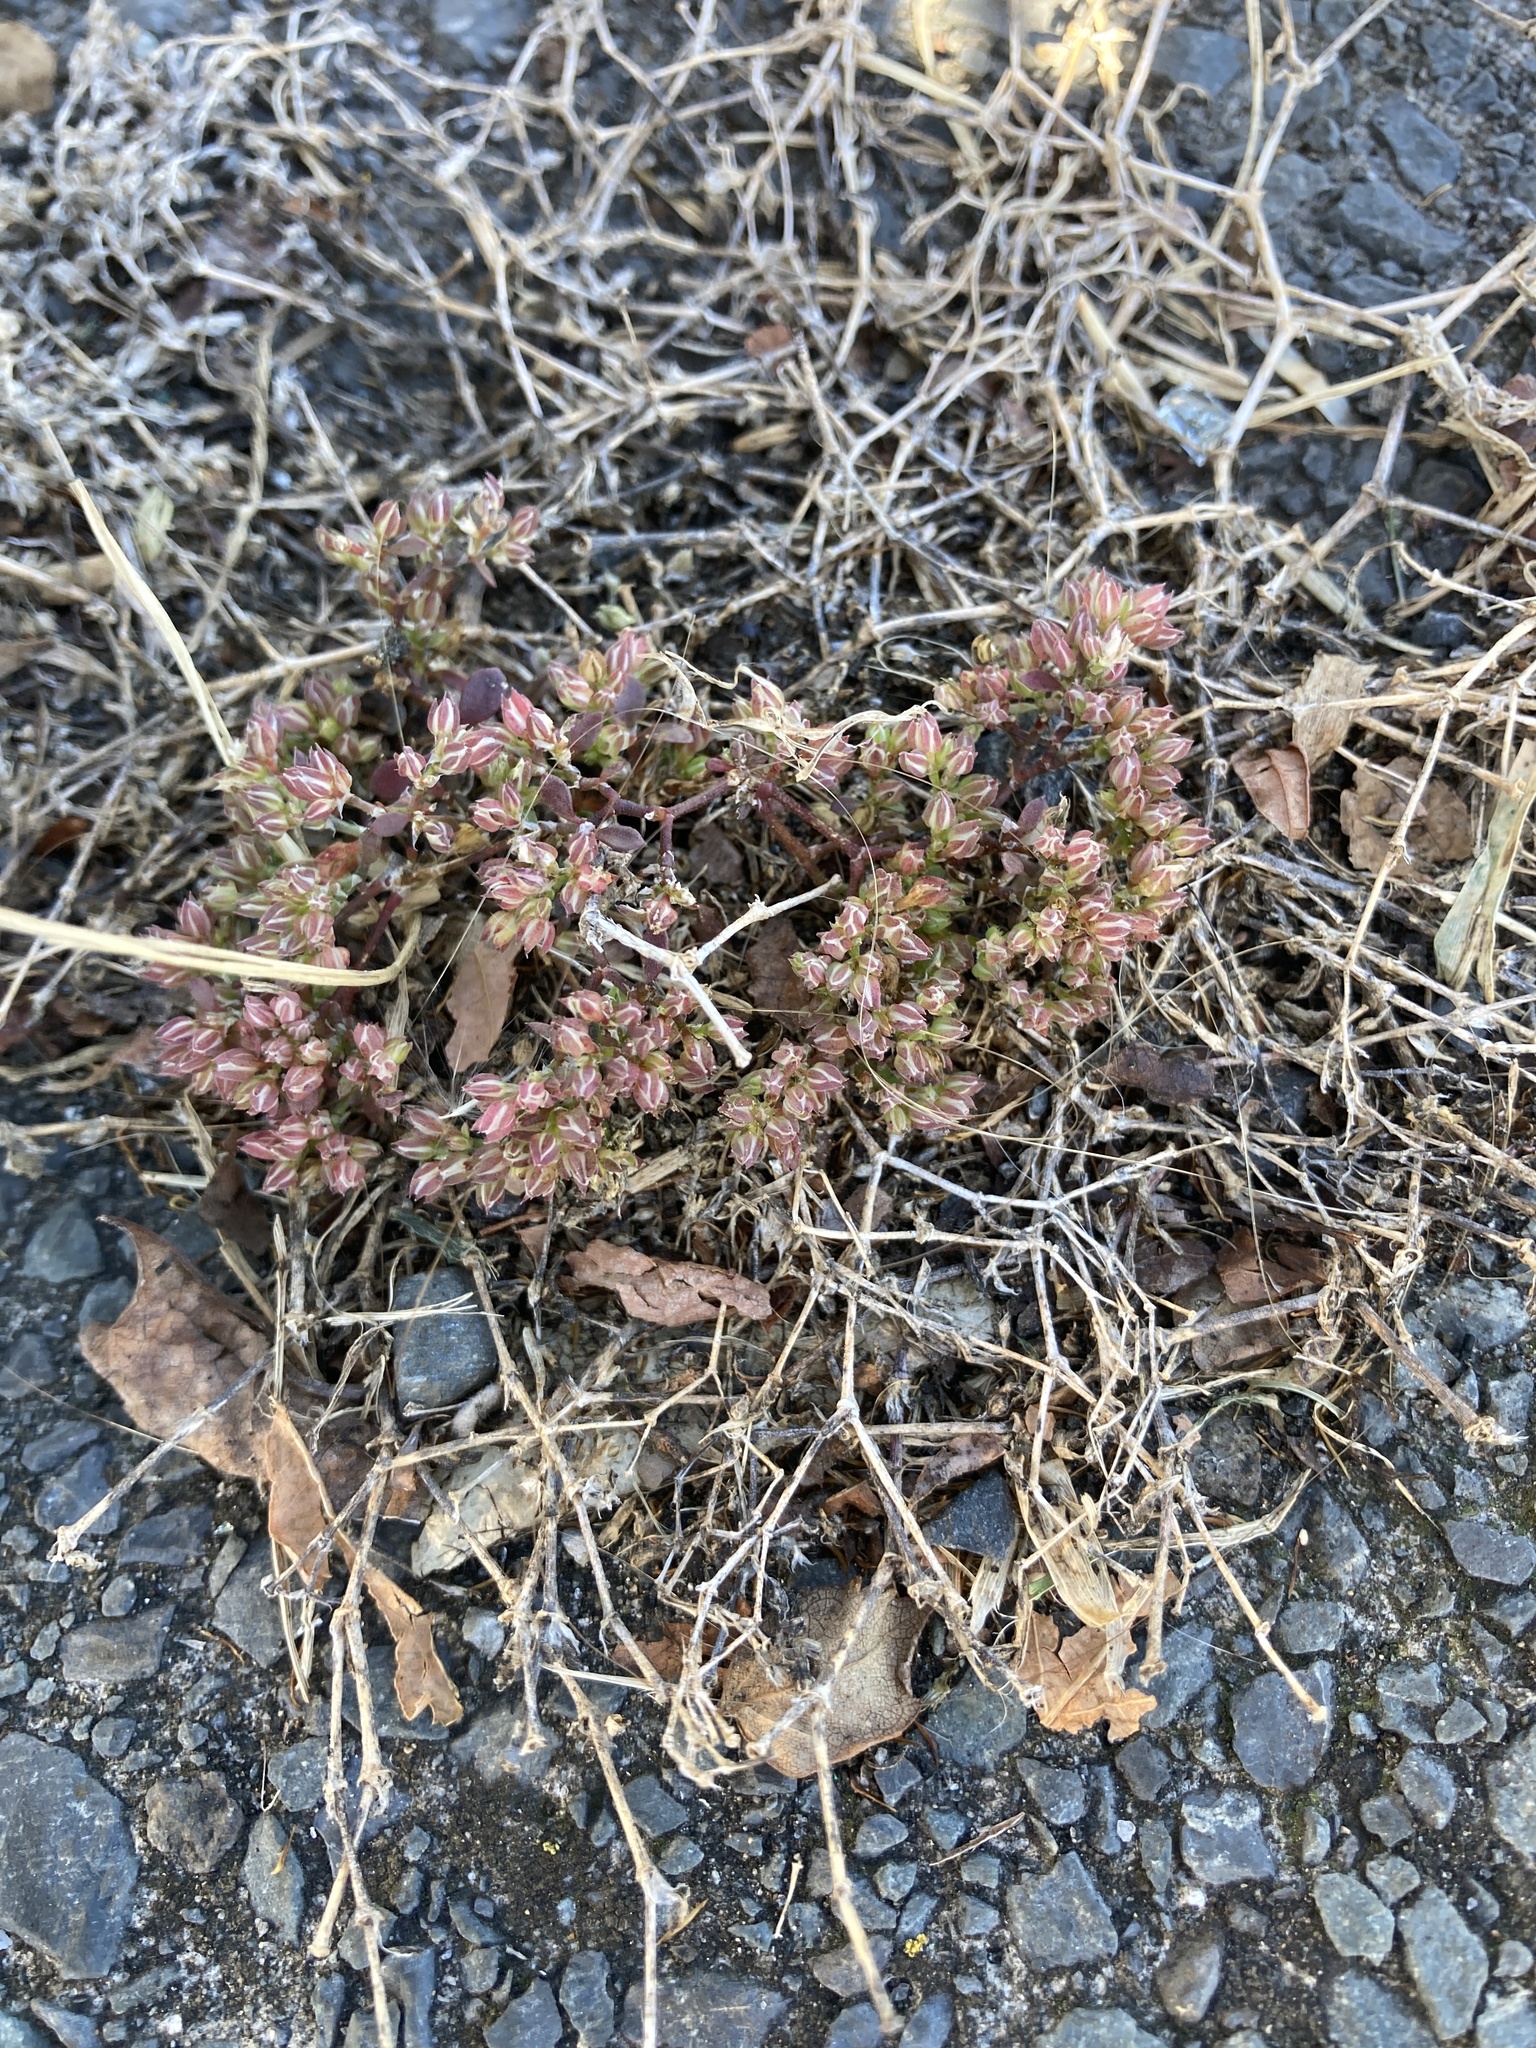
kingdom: Plantae
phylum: Tracheophyta
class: Magnoliopsida
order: Caryophyllales
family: Caryophyllaceae
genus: Polycarpon
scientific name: Polycarpon tetraphyllum
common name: Four-leaved all-seed
